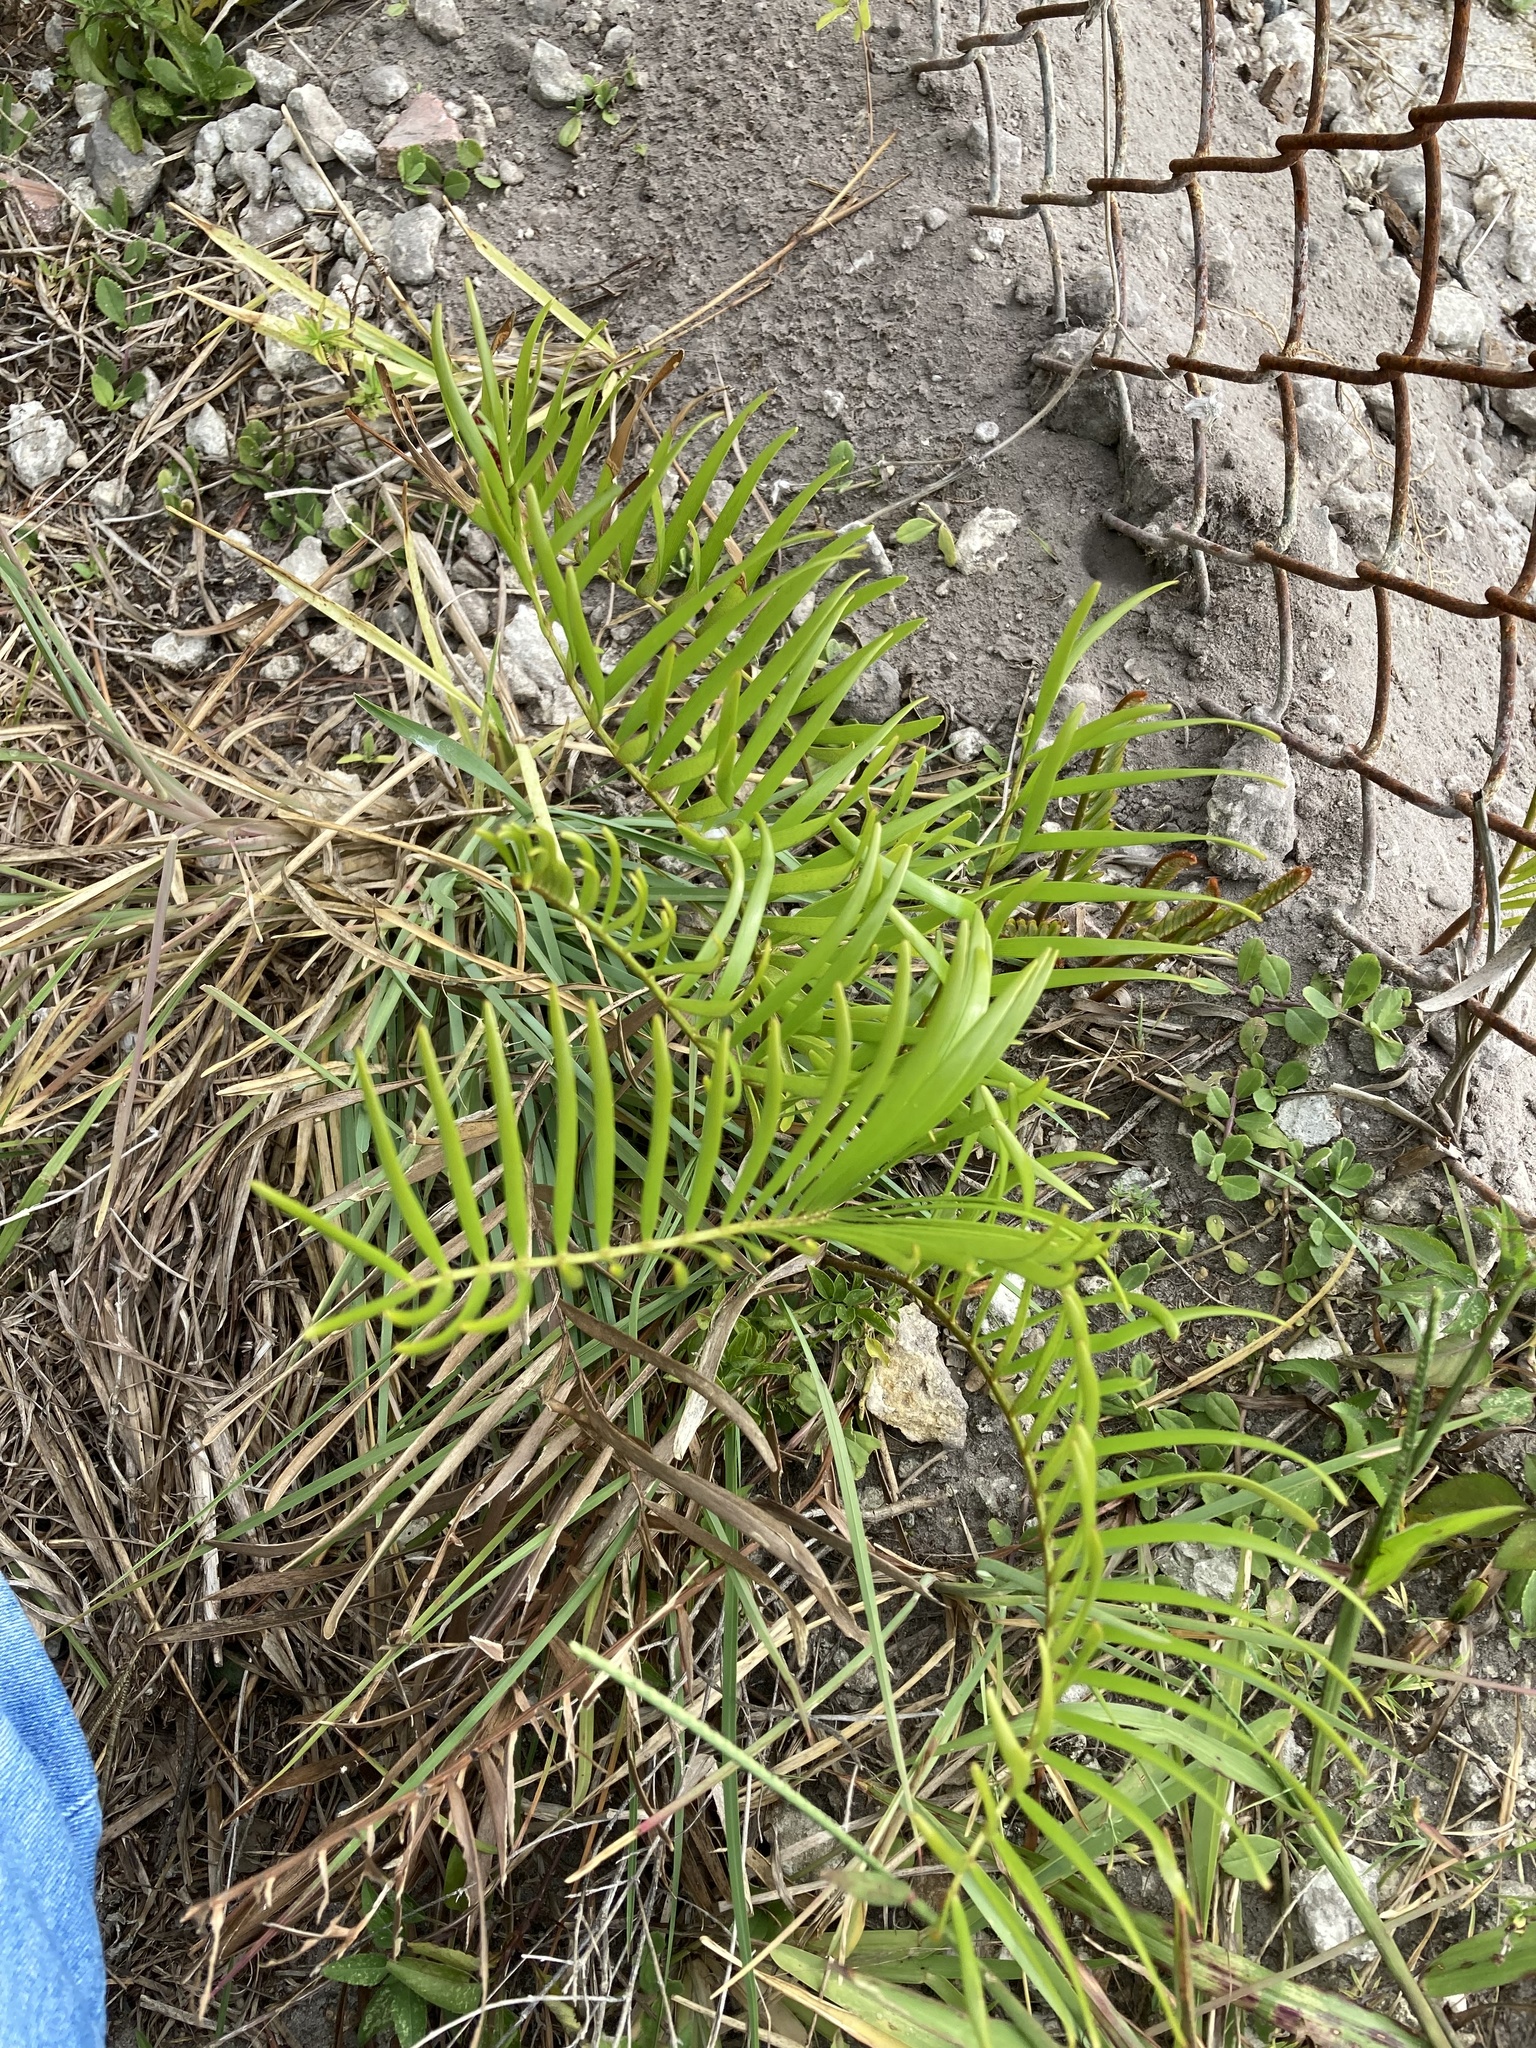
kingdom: Plantae
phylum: Tracheophyta
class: Cycadopsida
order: Cycadales
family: Zamiaceae
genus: Zamia
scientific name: Zamia integrifolia
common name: Florida arrowroot
